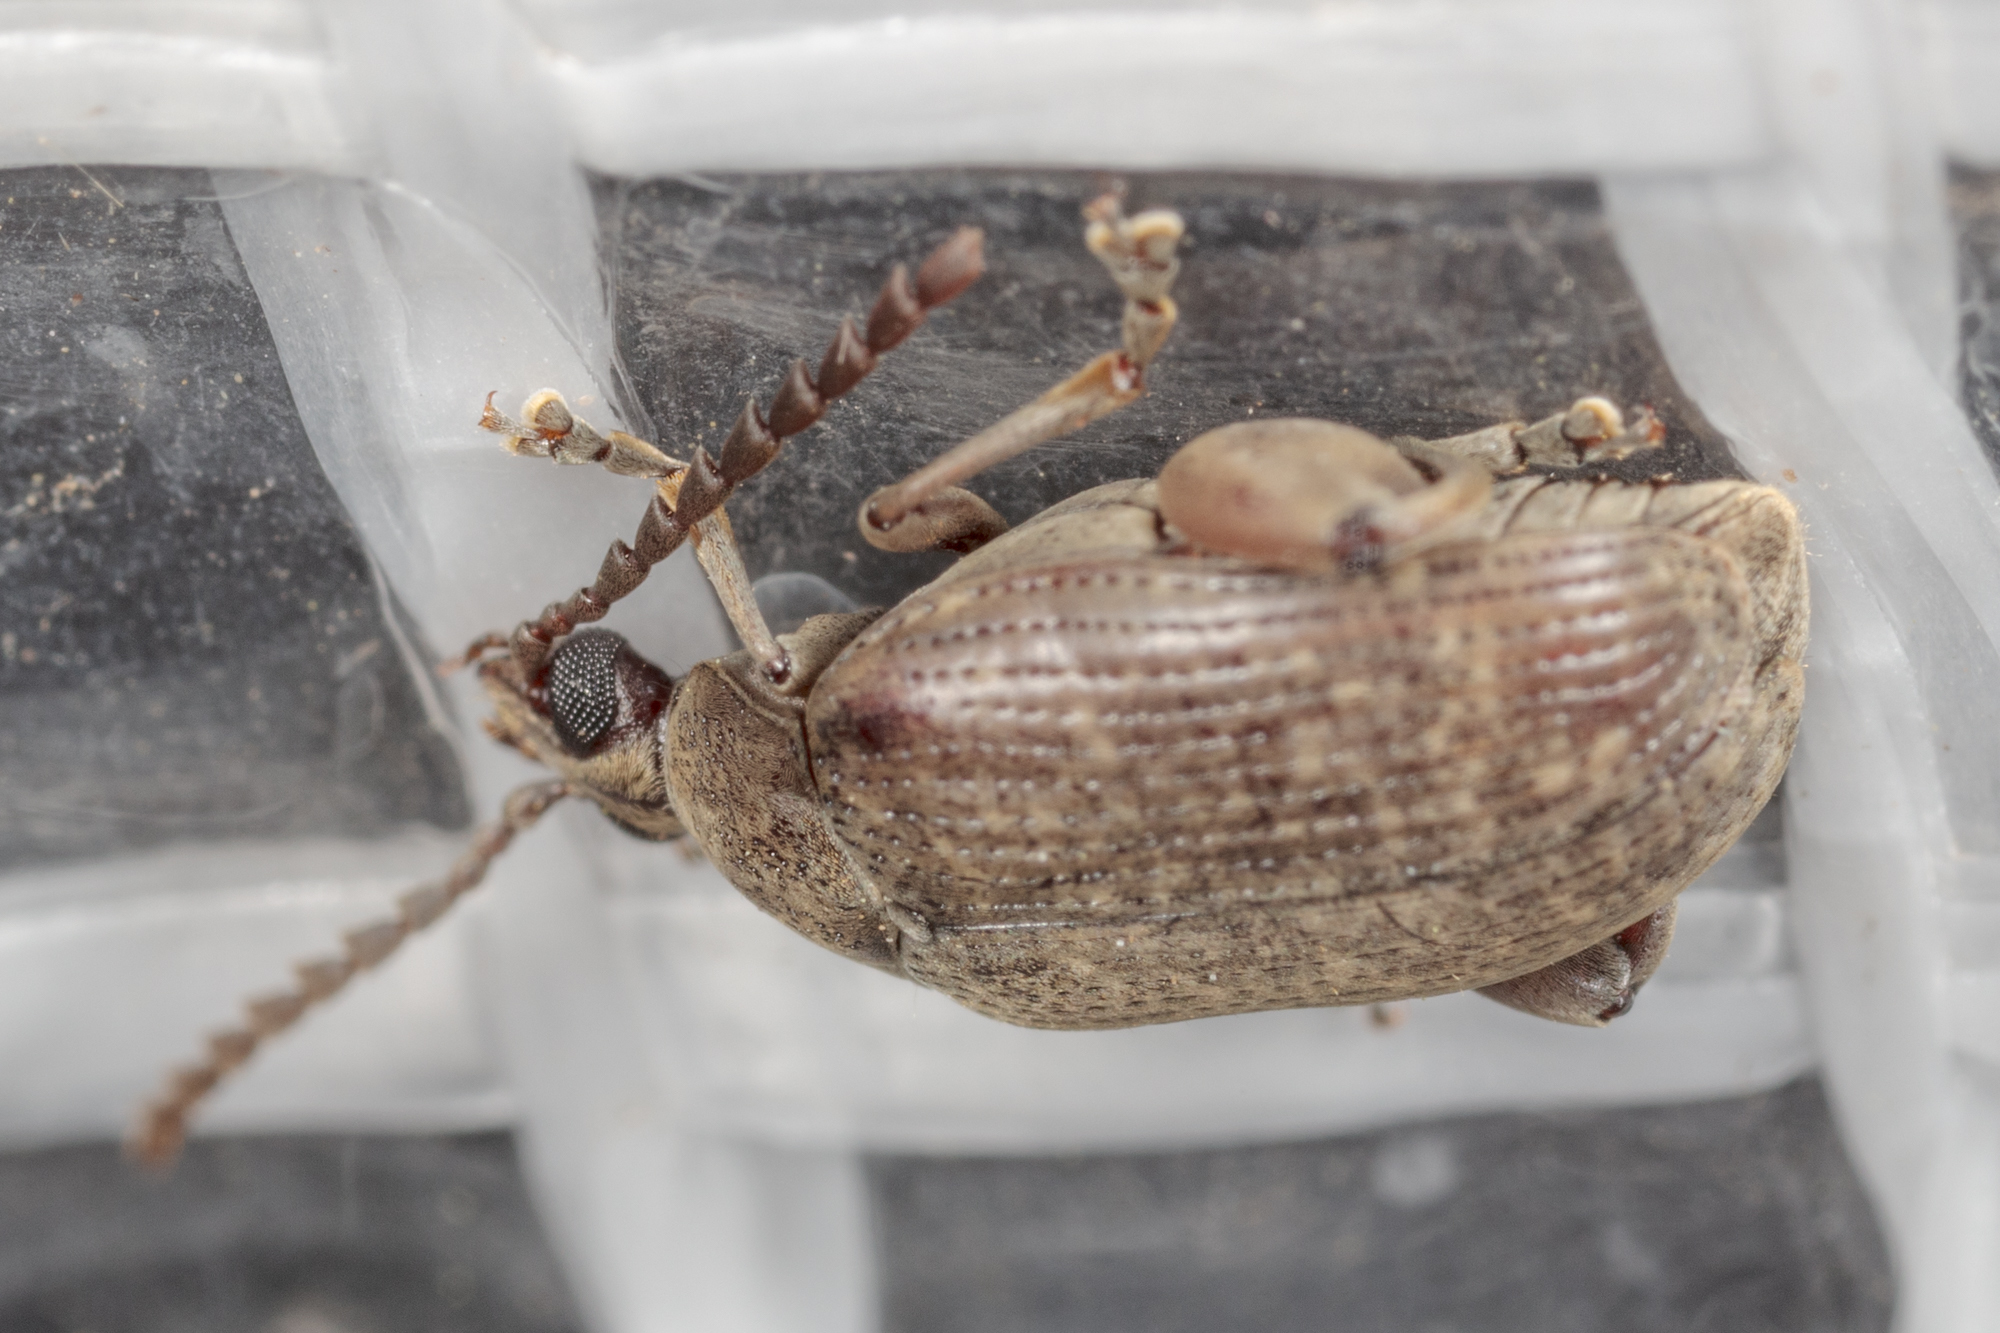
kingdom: Animalia
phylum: Arthropoda
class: Insecta
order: Coleoptera
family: Chrysomelidae
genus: Caryobruchus
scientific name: Caryobruchus gleditsiae
